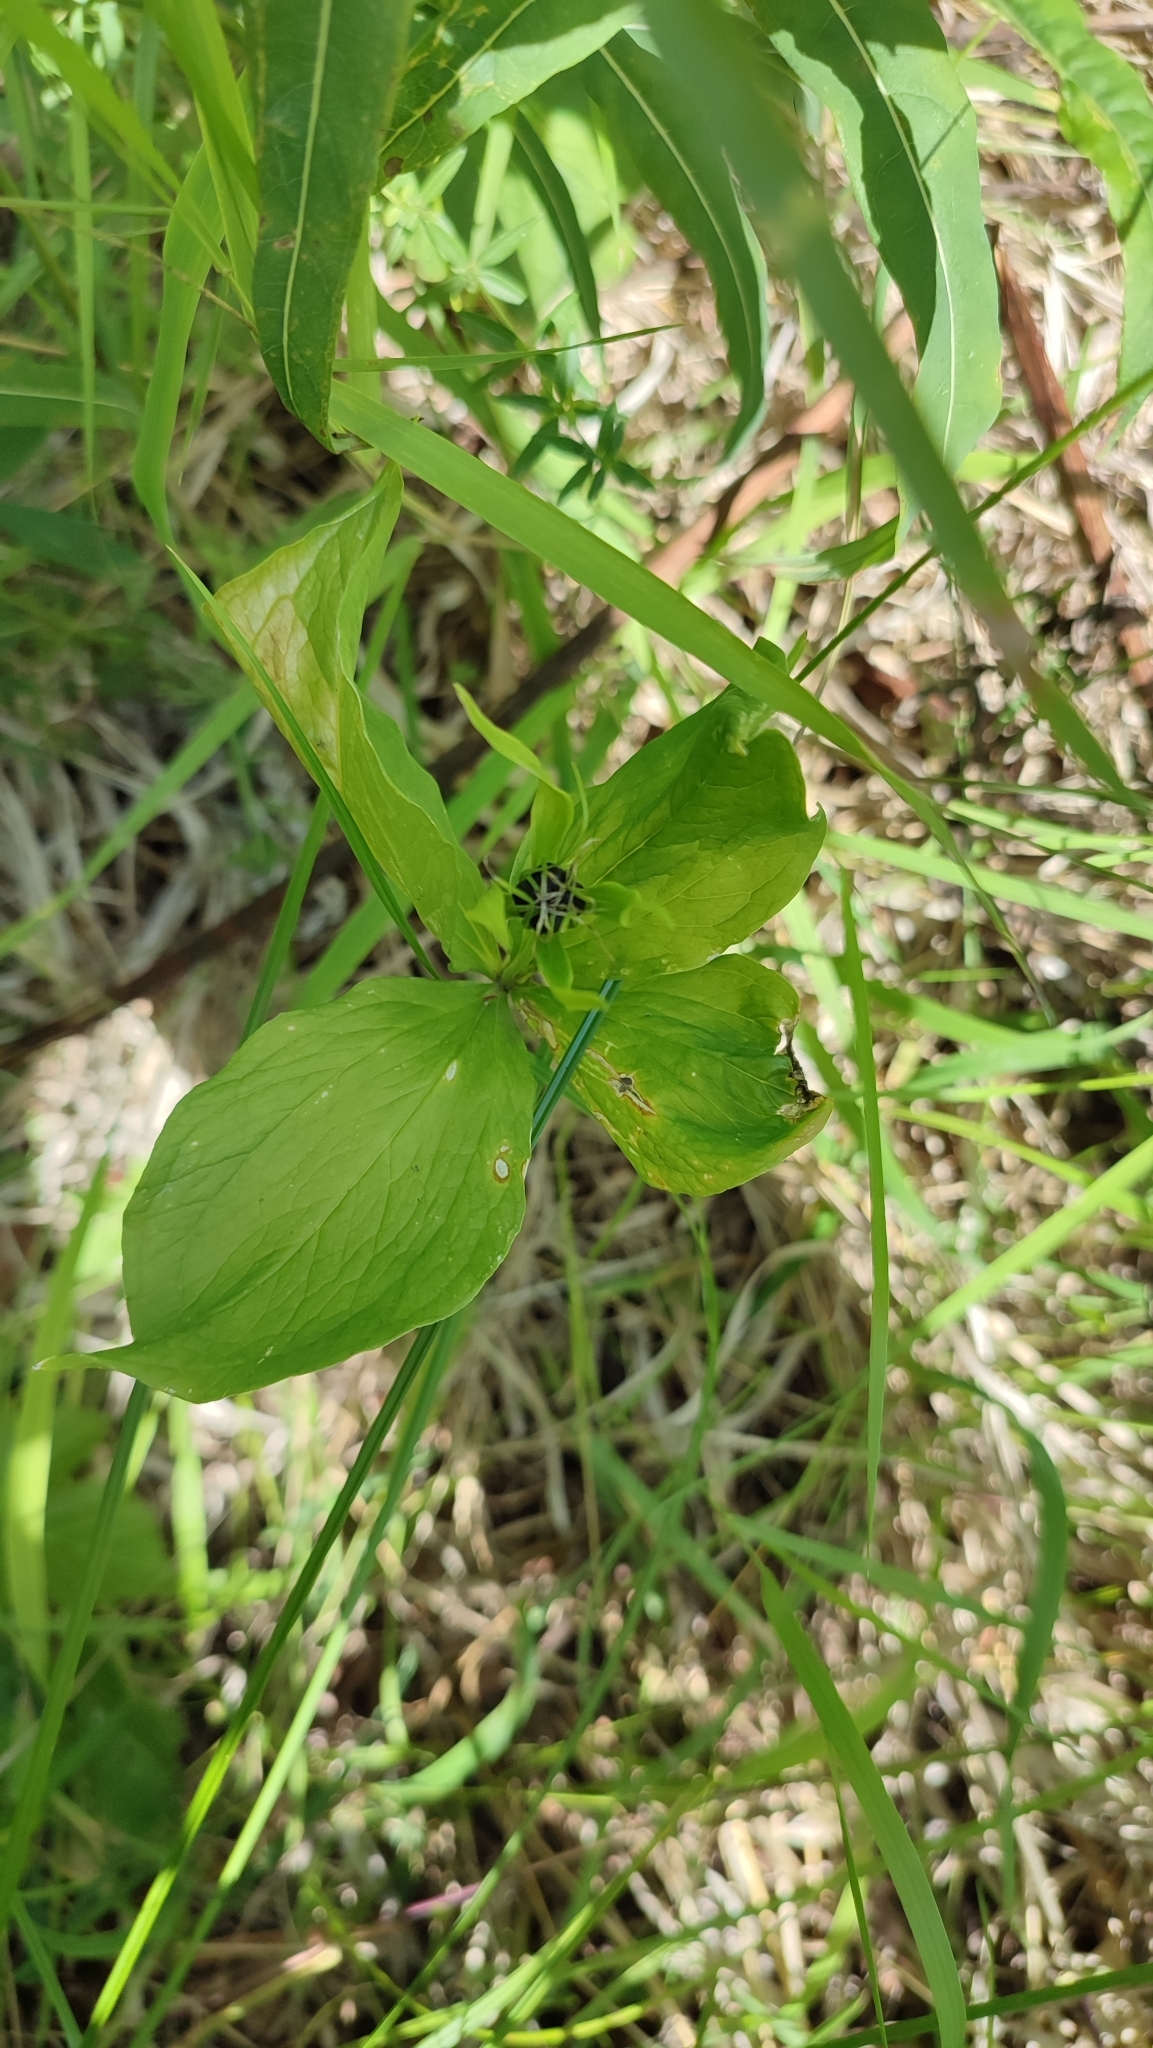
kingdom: Plantae
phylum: Tracheophyta
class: Liliopsida
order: Liliales
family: Melanthiaceae
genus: Paris
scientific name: Paris quadrifolia
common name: Herb-paris
